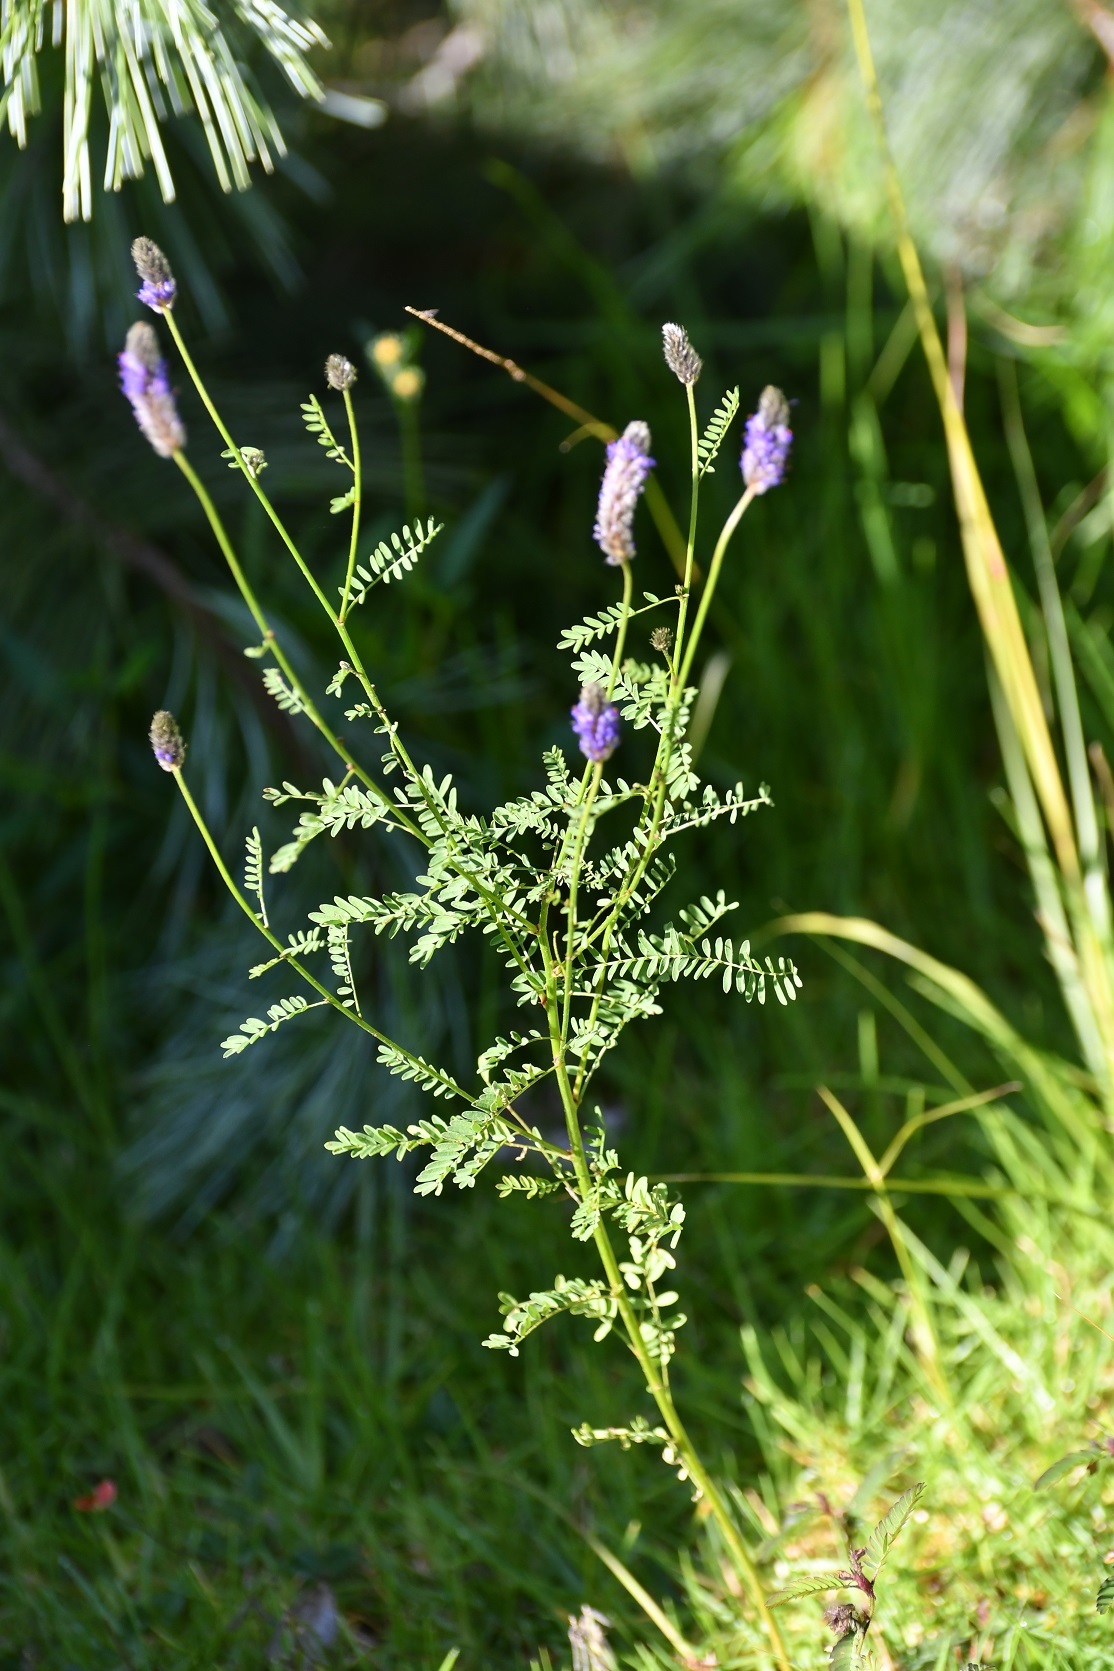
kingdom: Plantae
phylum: Tracheophyta
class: Magnoliopsida
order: Fabales
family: Fabaceae
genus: Dalea
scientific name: Dalea leporina
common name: Foxtail dalea
